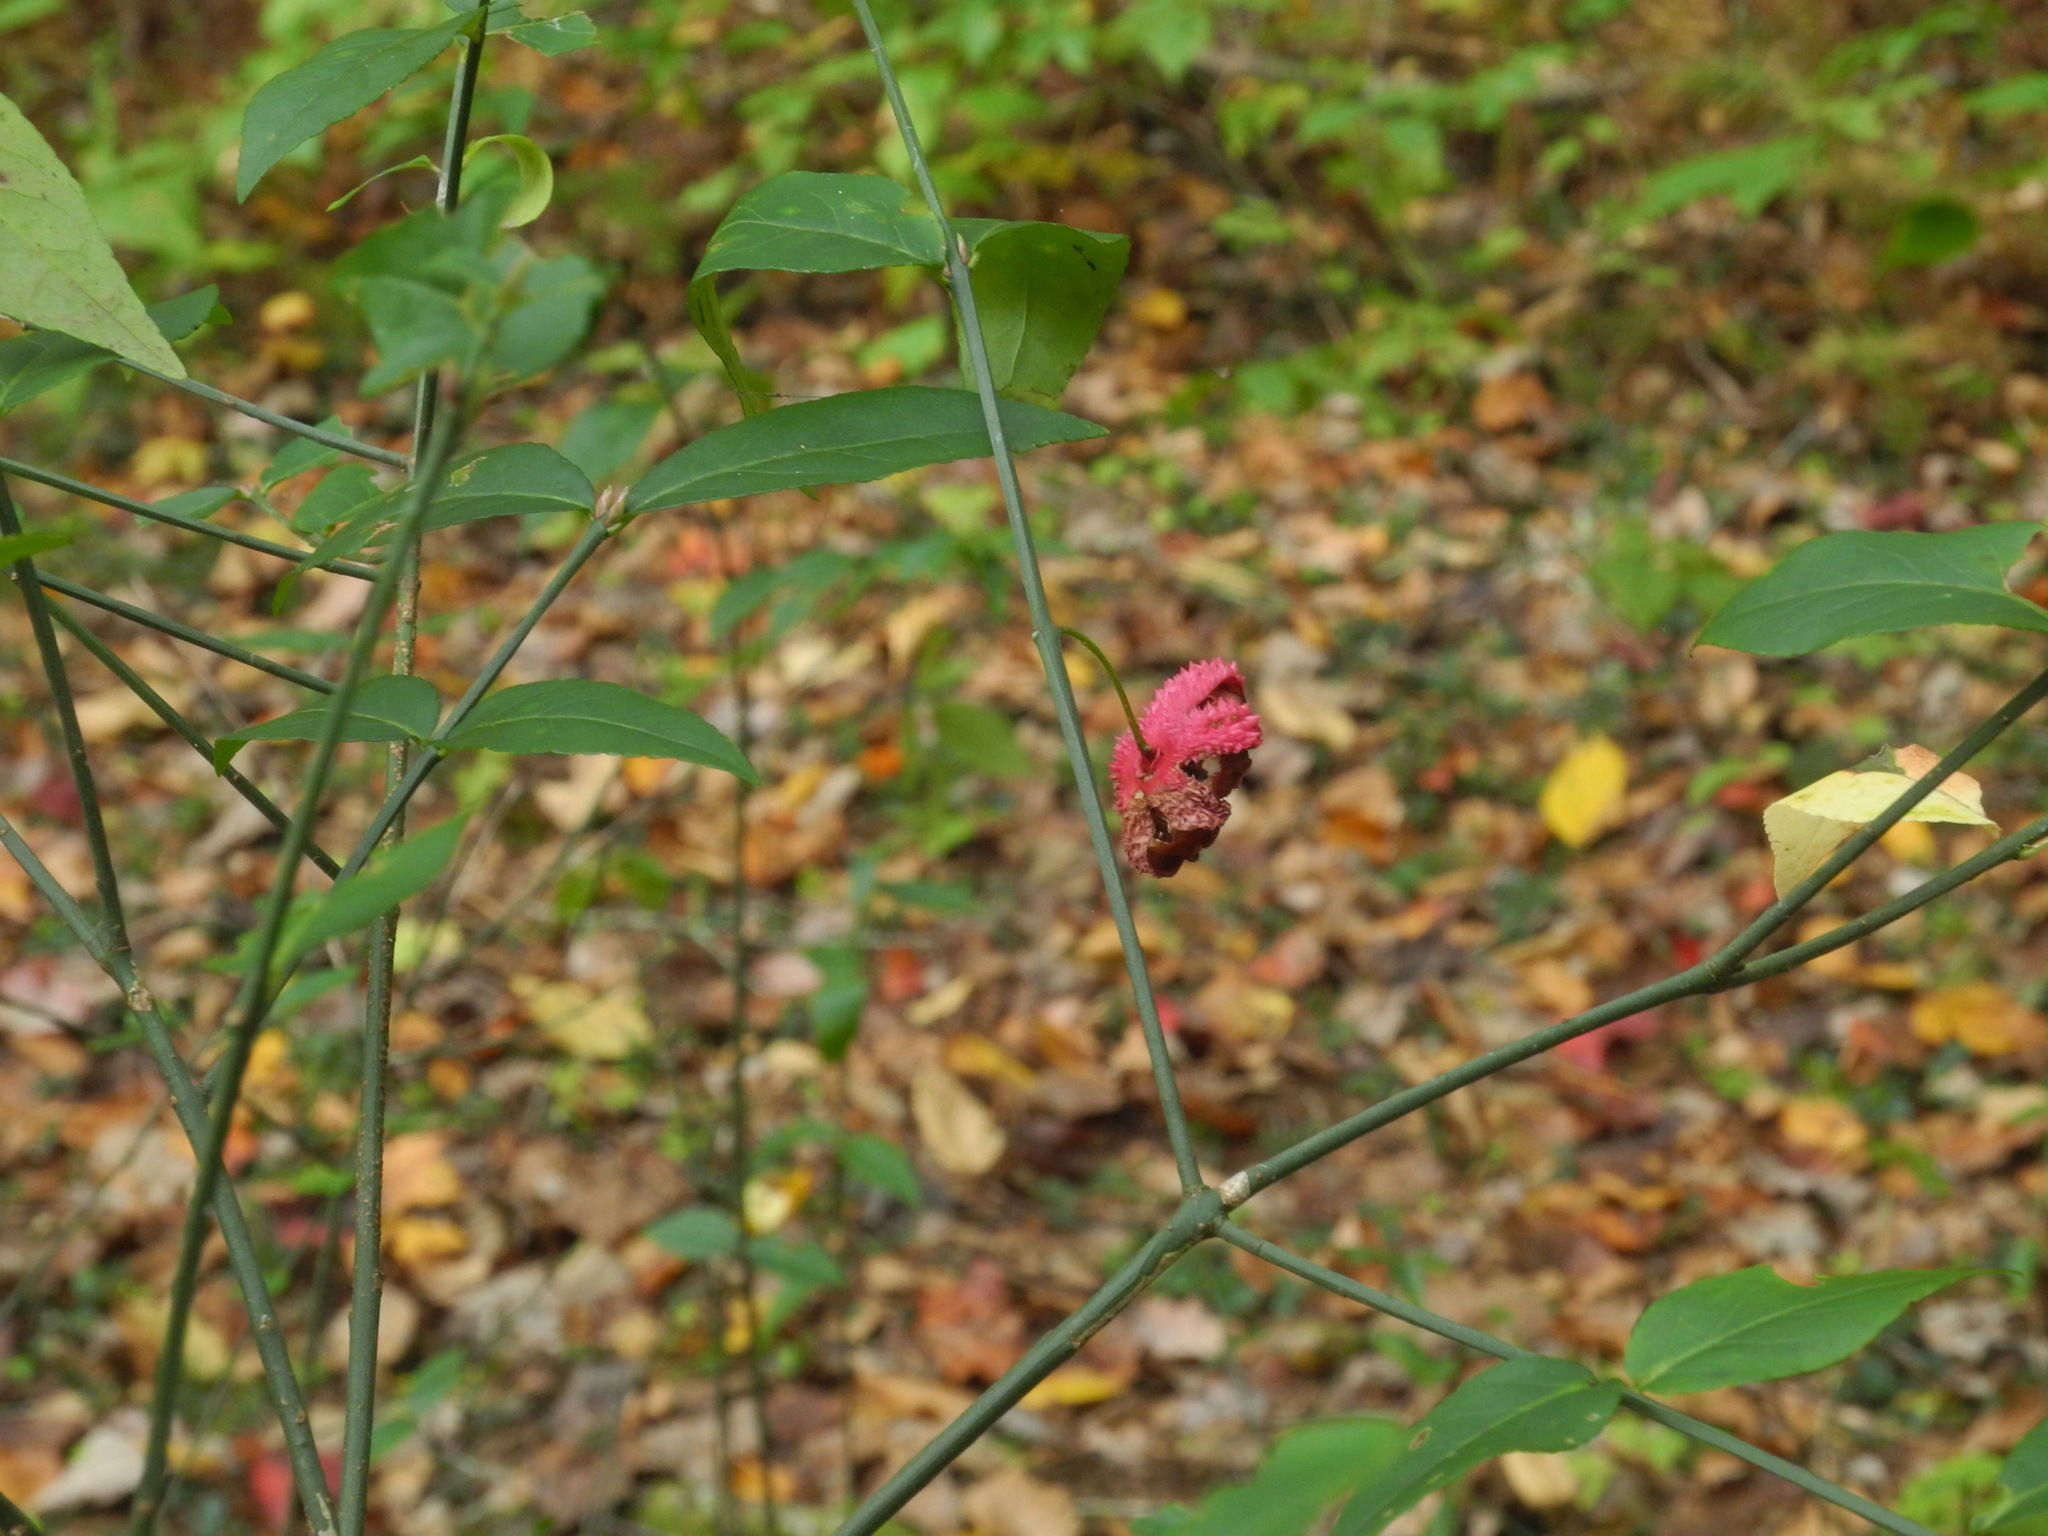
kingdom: Plantae
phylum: Tracheophyta
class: Magnoliopsida
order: Celastrales
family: Celastraceae
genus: Euonymus
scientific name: Euonymus americanus
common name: Bursting-heart
